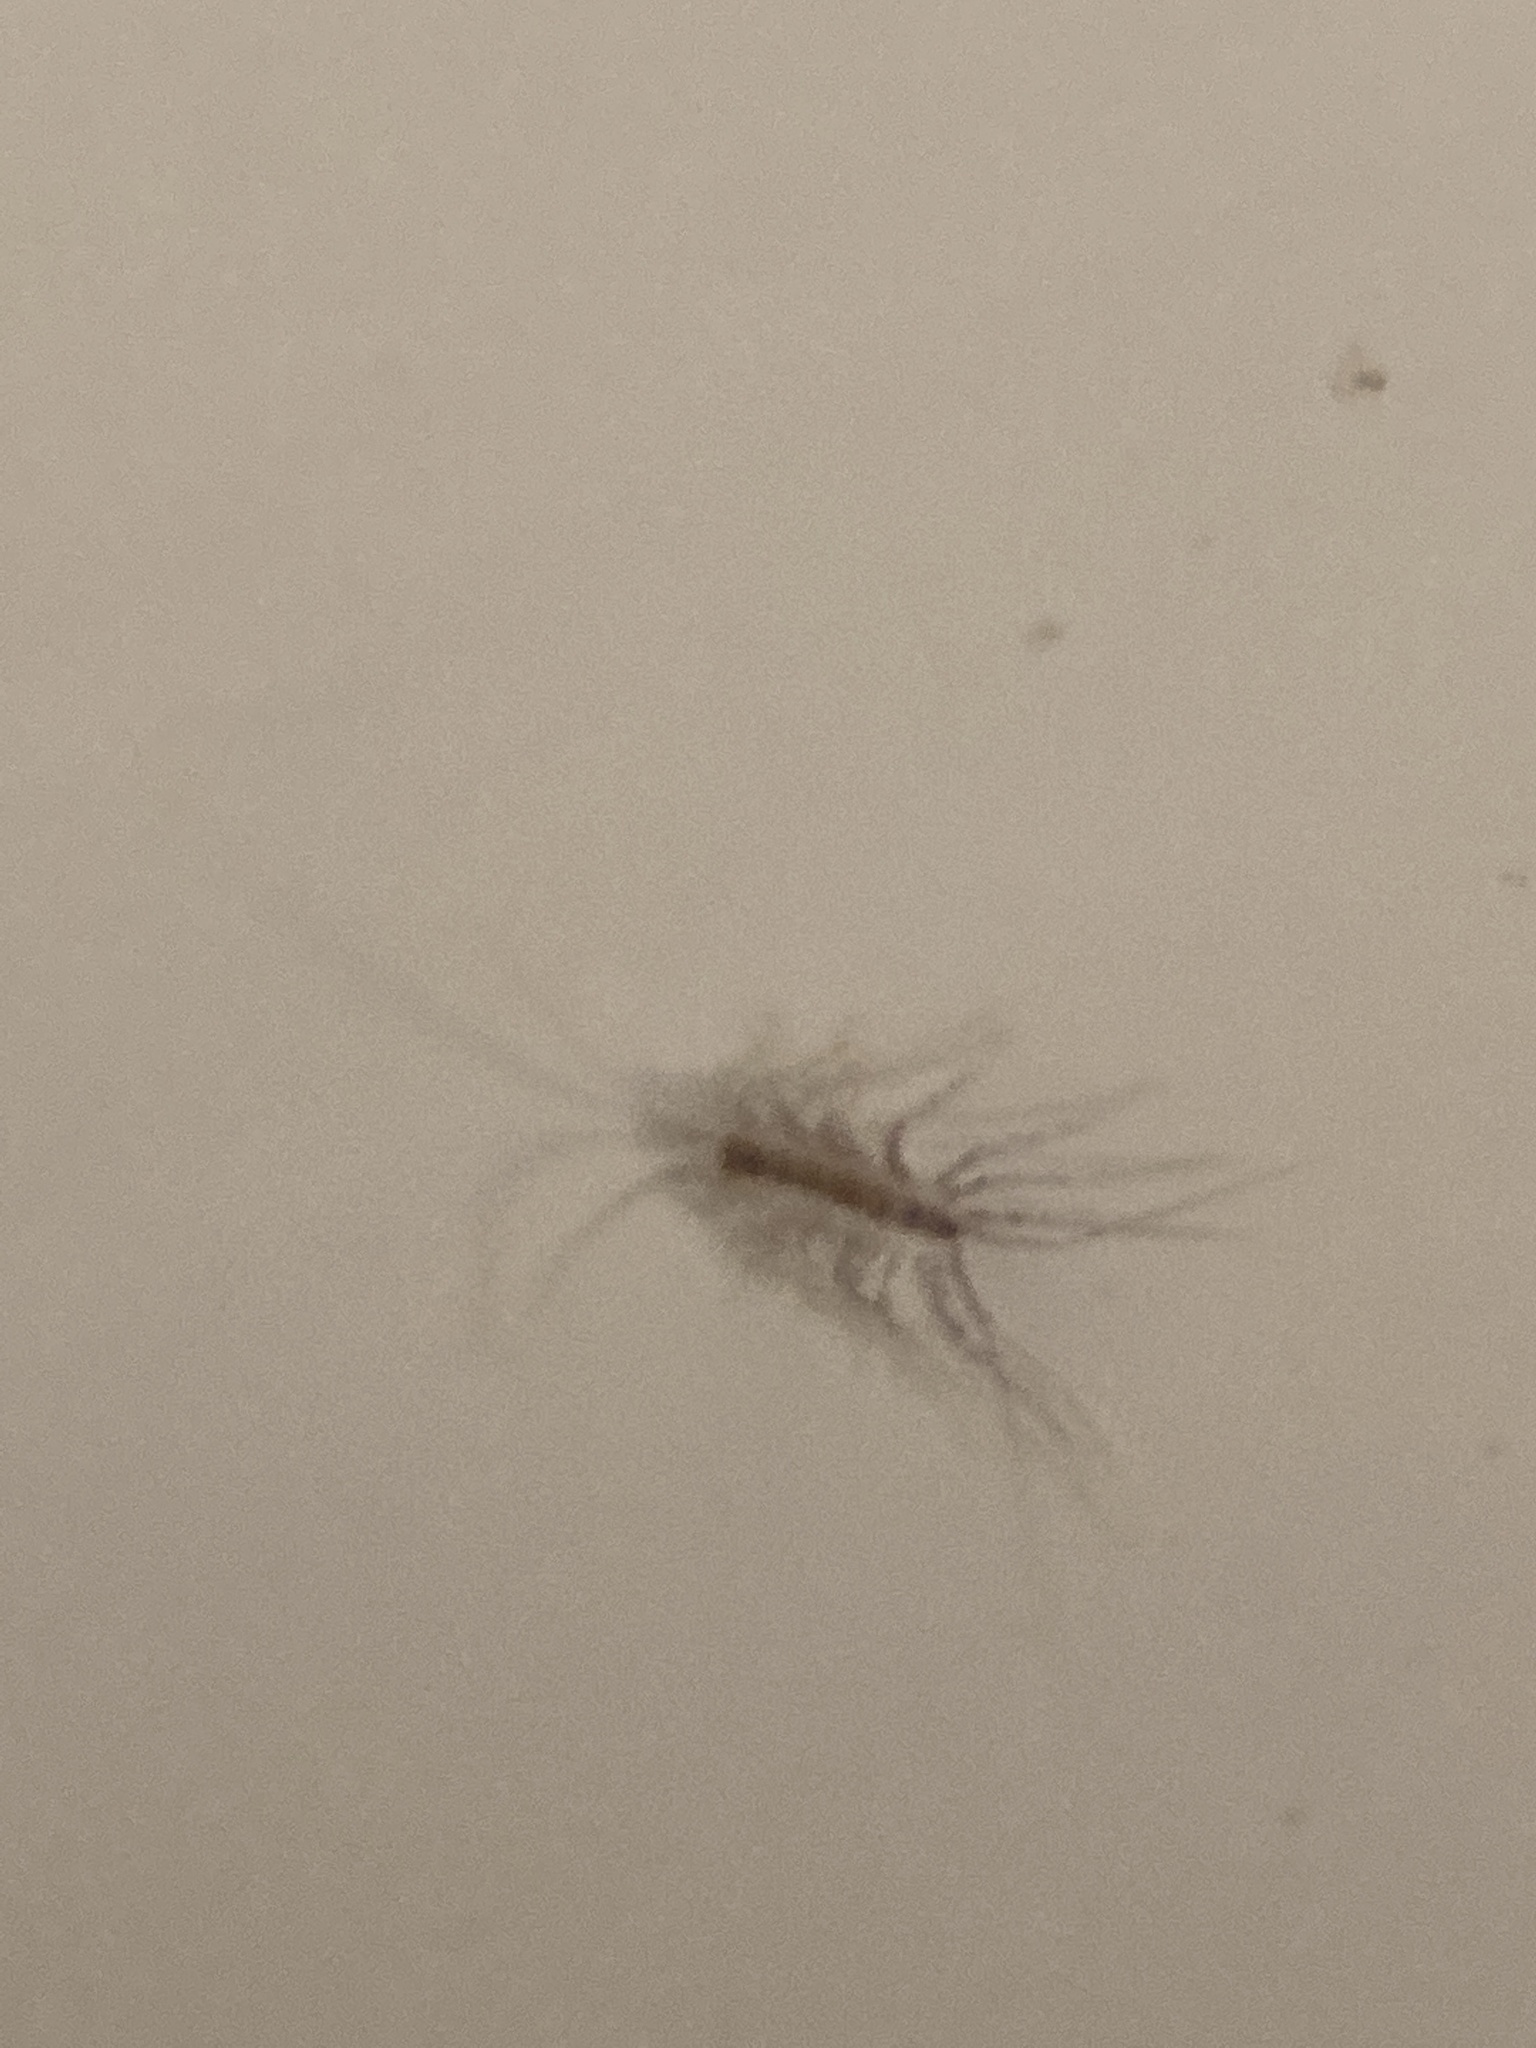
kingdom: Animalia
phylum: Arthropoda
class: Chilopoda
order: Scutigeromorpha
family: Scutigeridae
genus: Scutigera
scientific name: Scutigera coleoptrata
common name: House centipede
